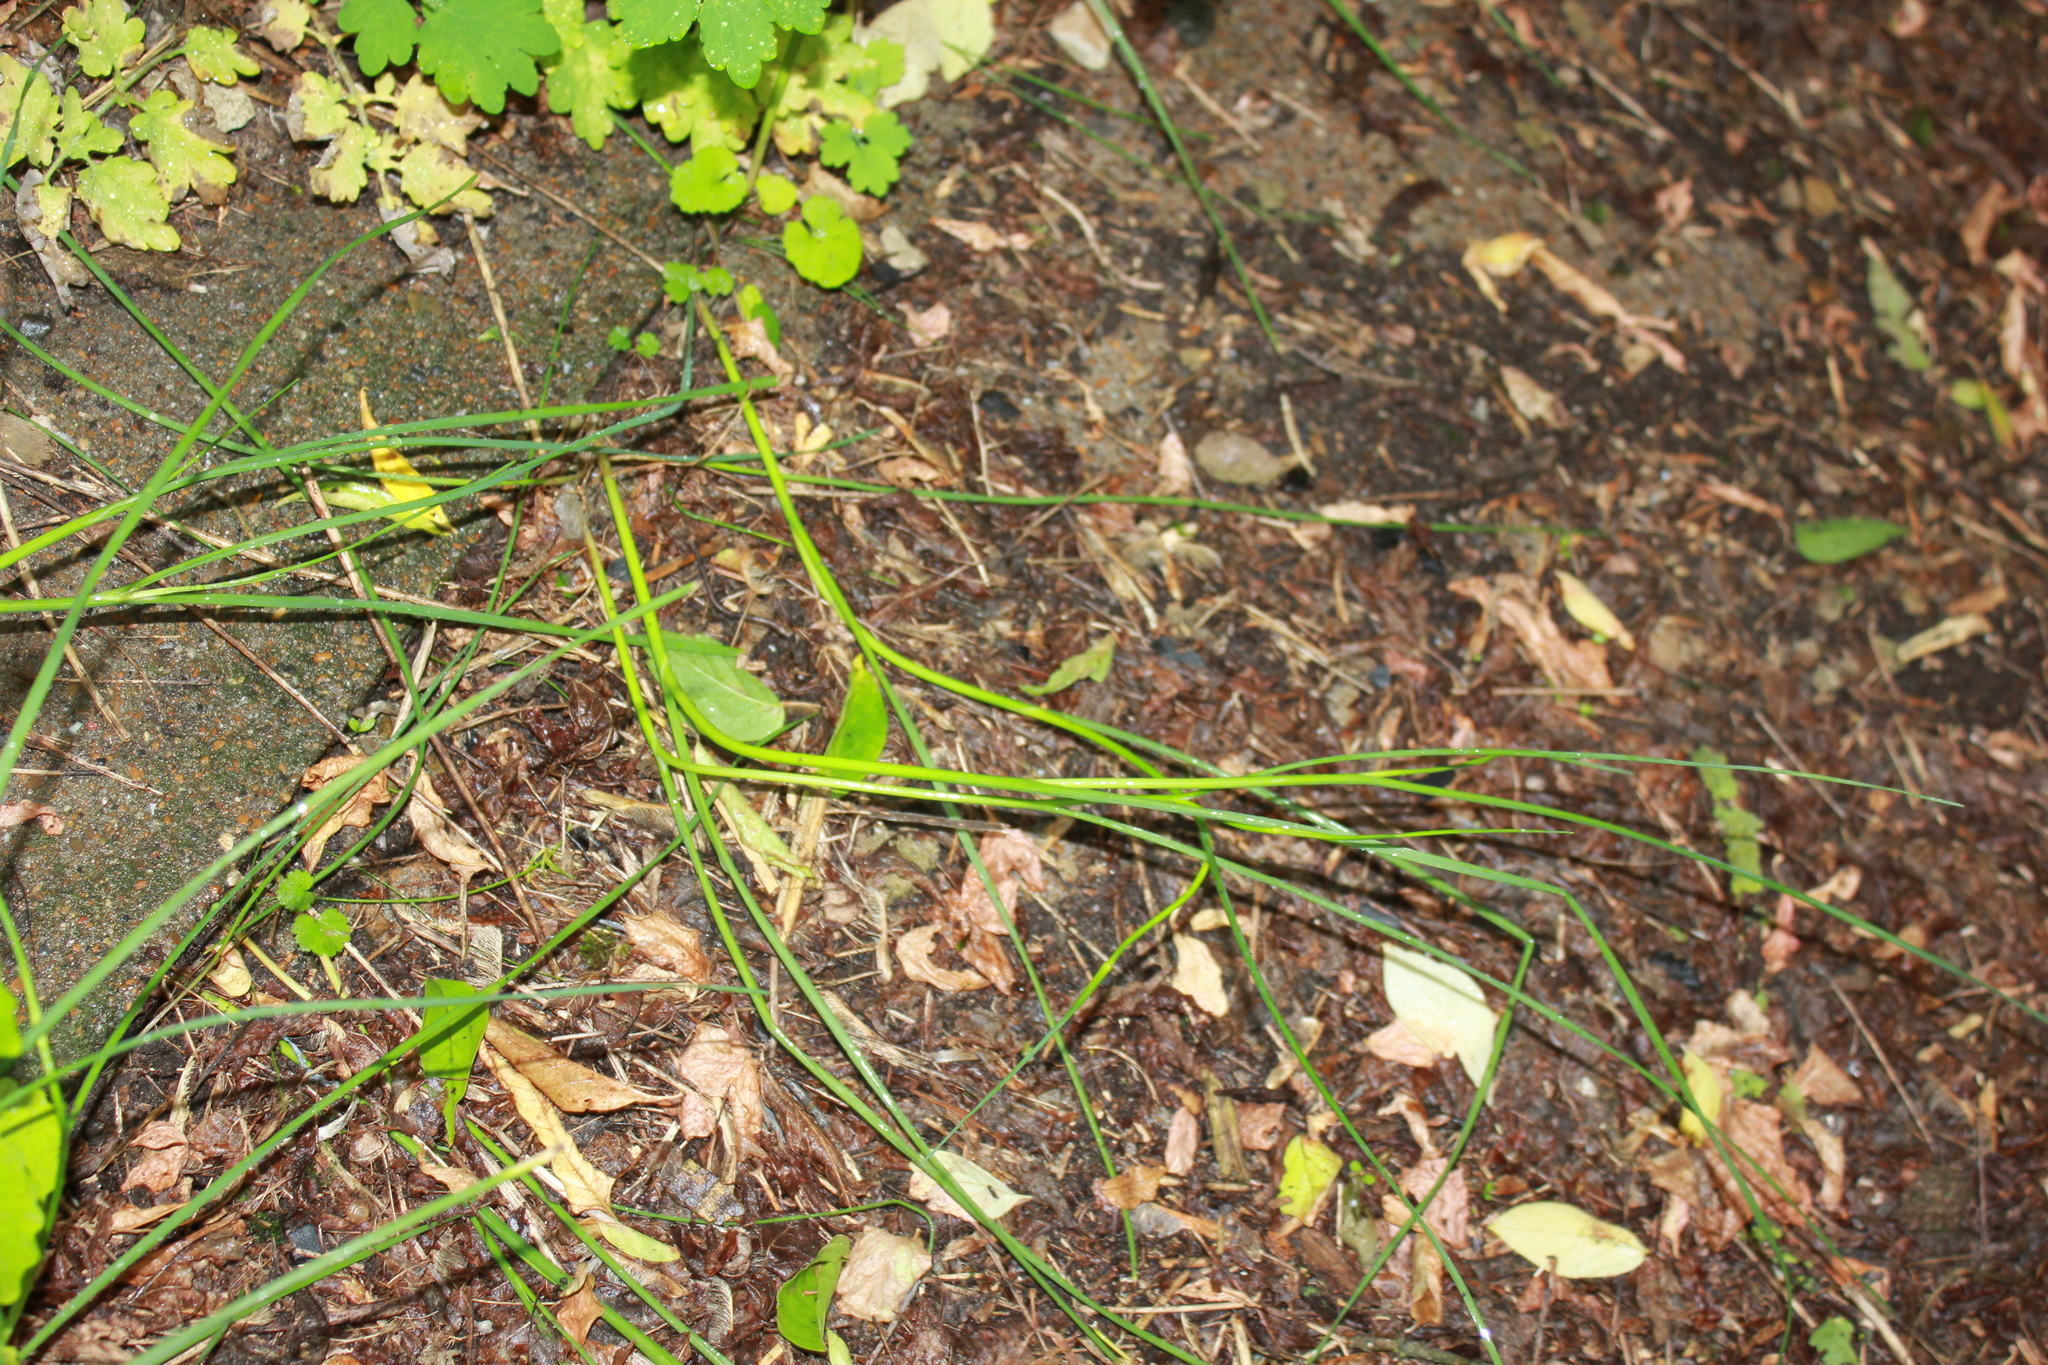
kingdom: Plantae
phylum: Tracheophyta
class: Liliopsida
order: Asparagales
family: Amaryllidaceae
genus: Allium
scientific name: Allium oleraceum
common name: Field garlic
